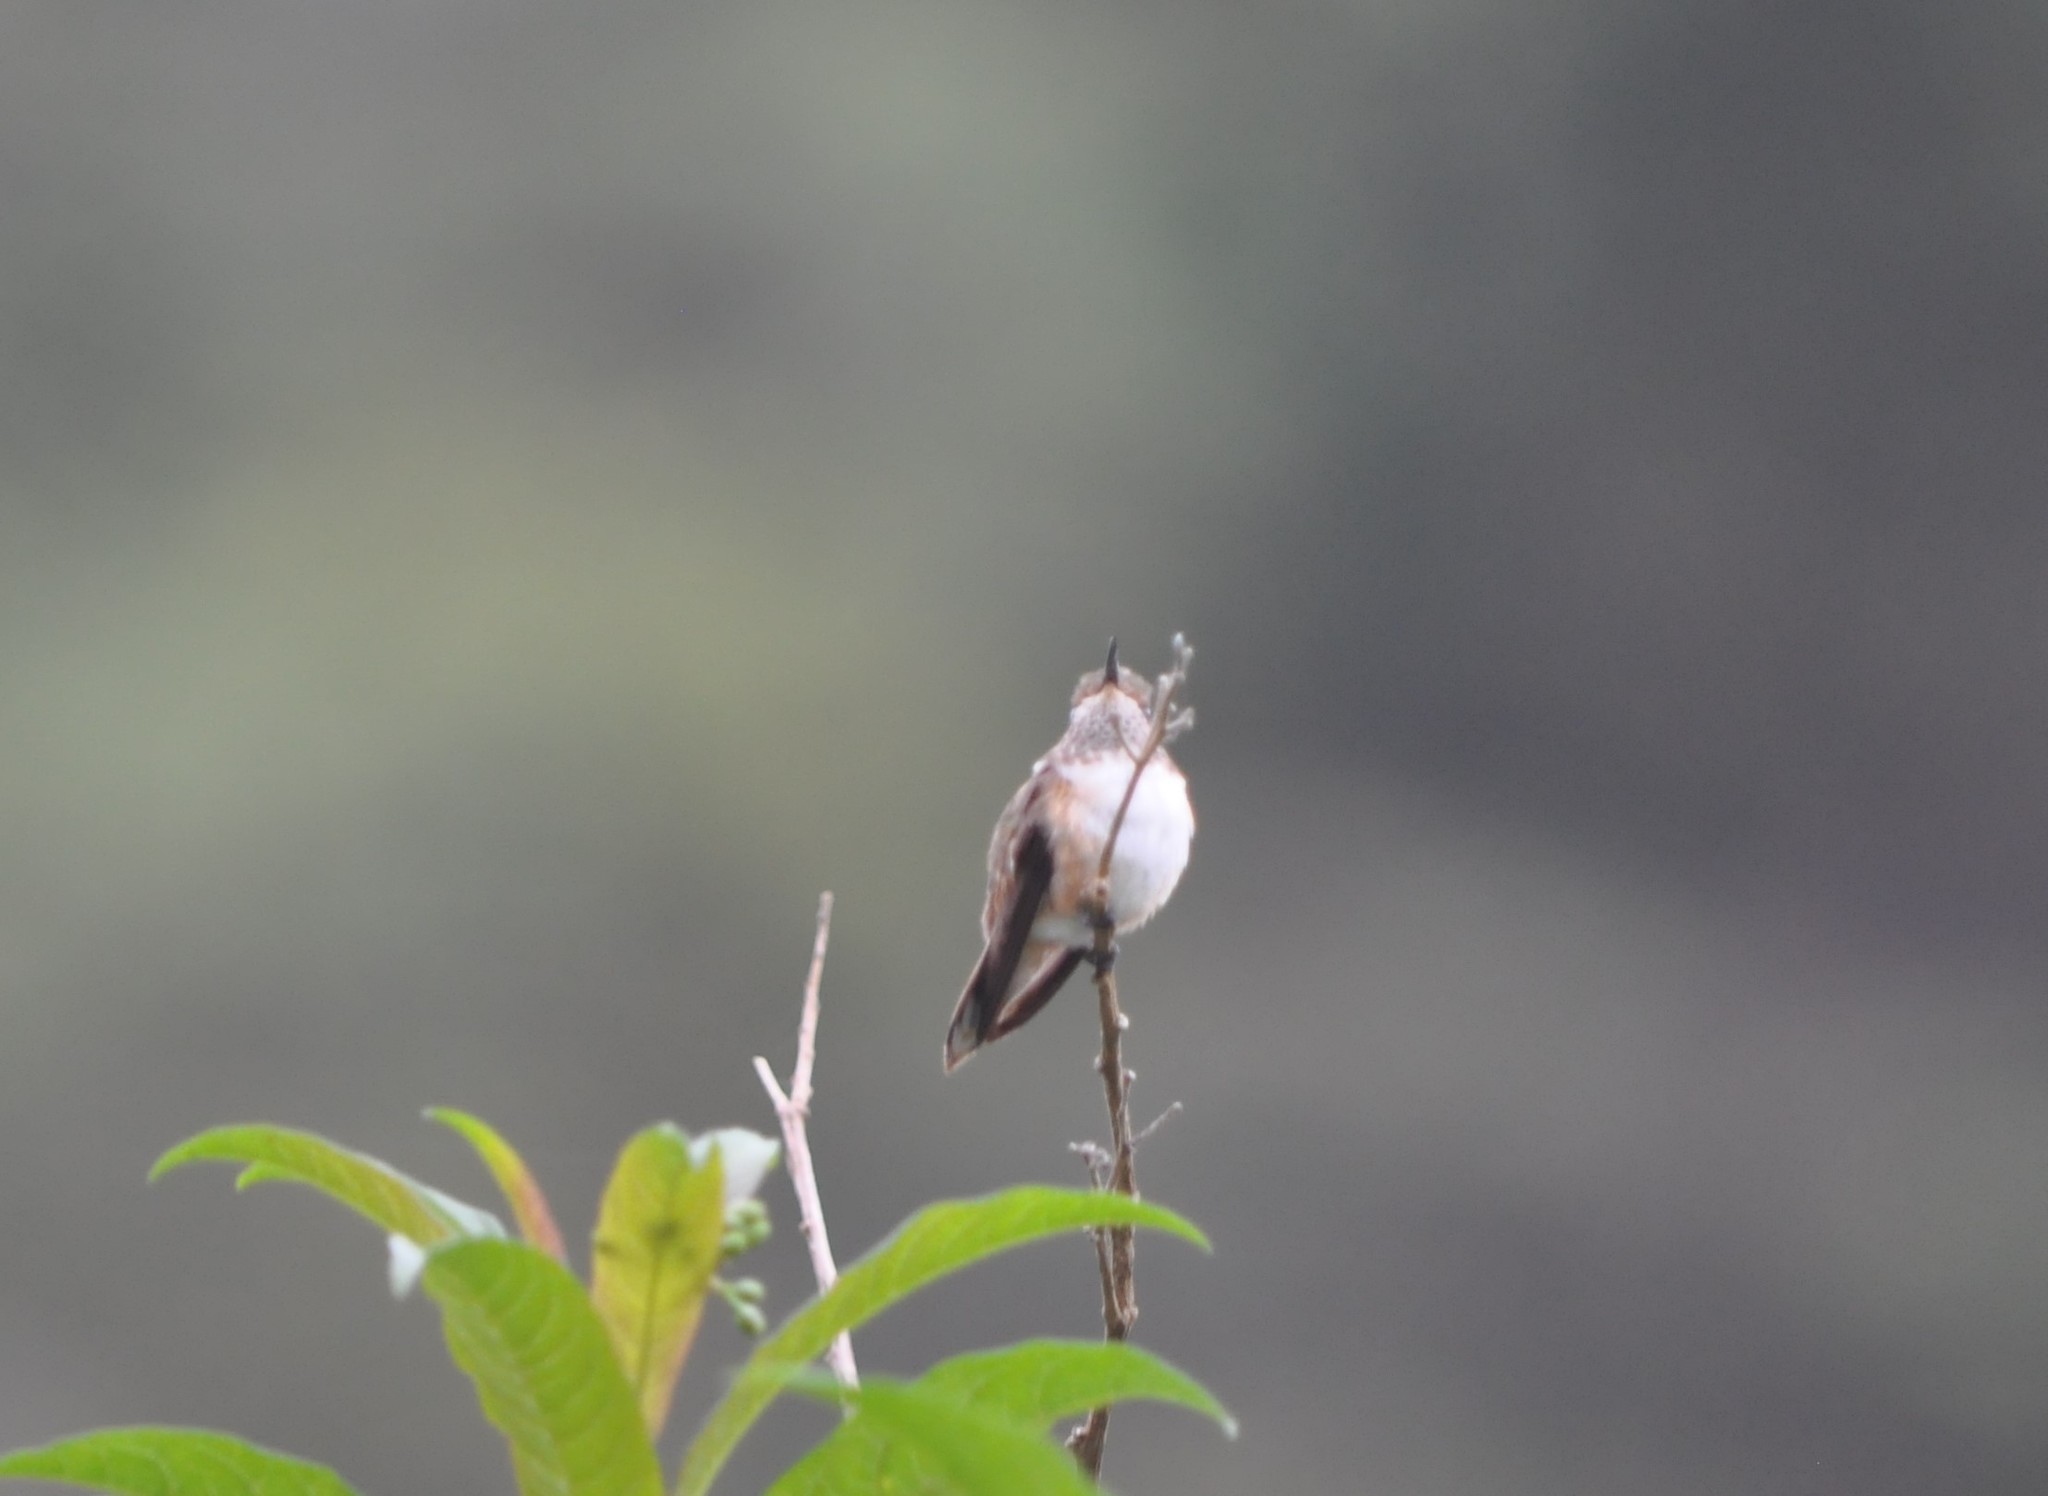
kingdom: Animalia
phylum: Chordata
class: Aves
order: Apodiformes
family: Trochilidae
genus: Selasphorus
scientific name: Selasphorus flammula
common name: Volcano hummingbird
